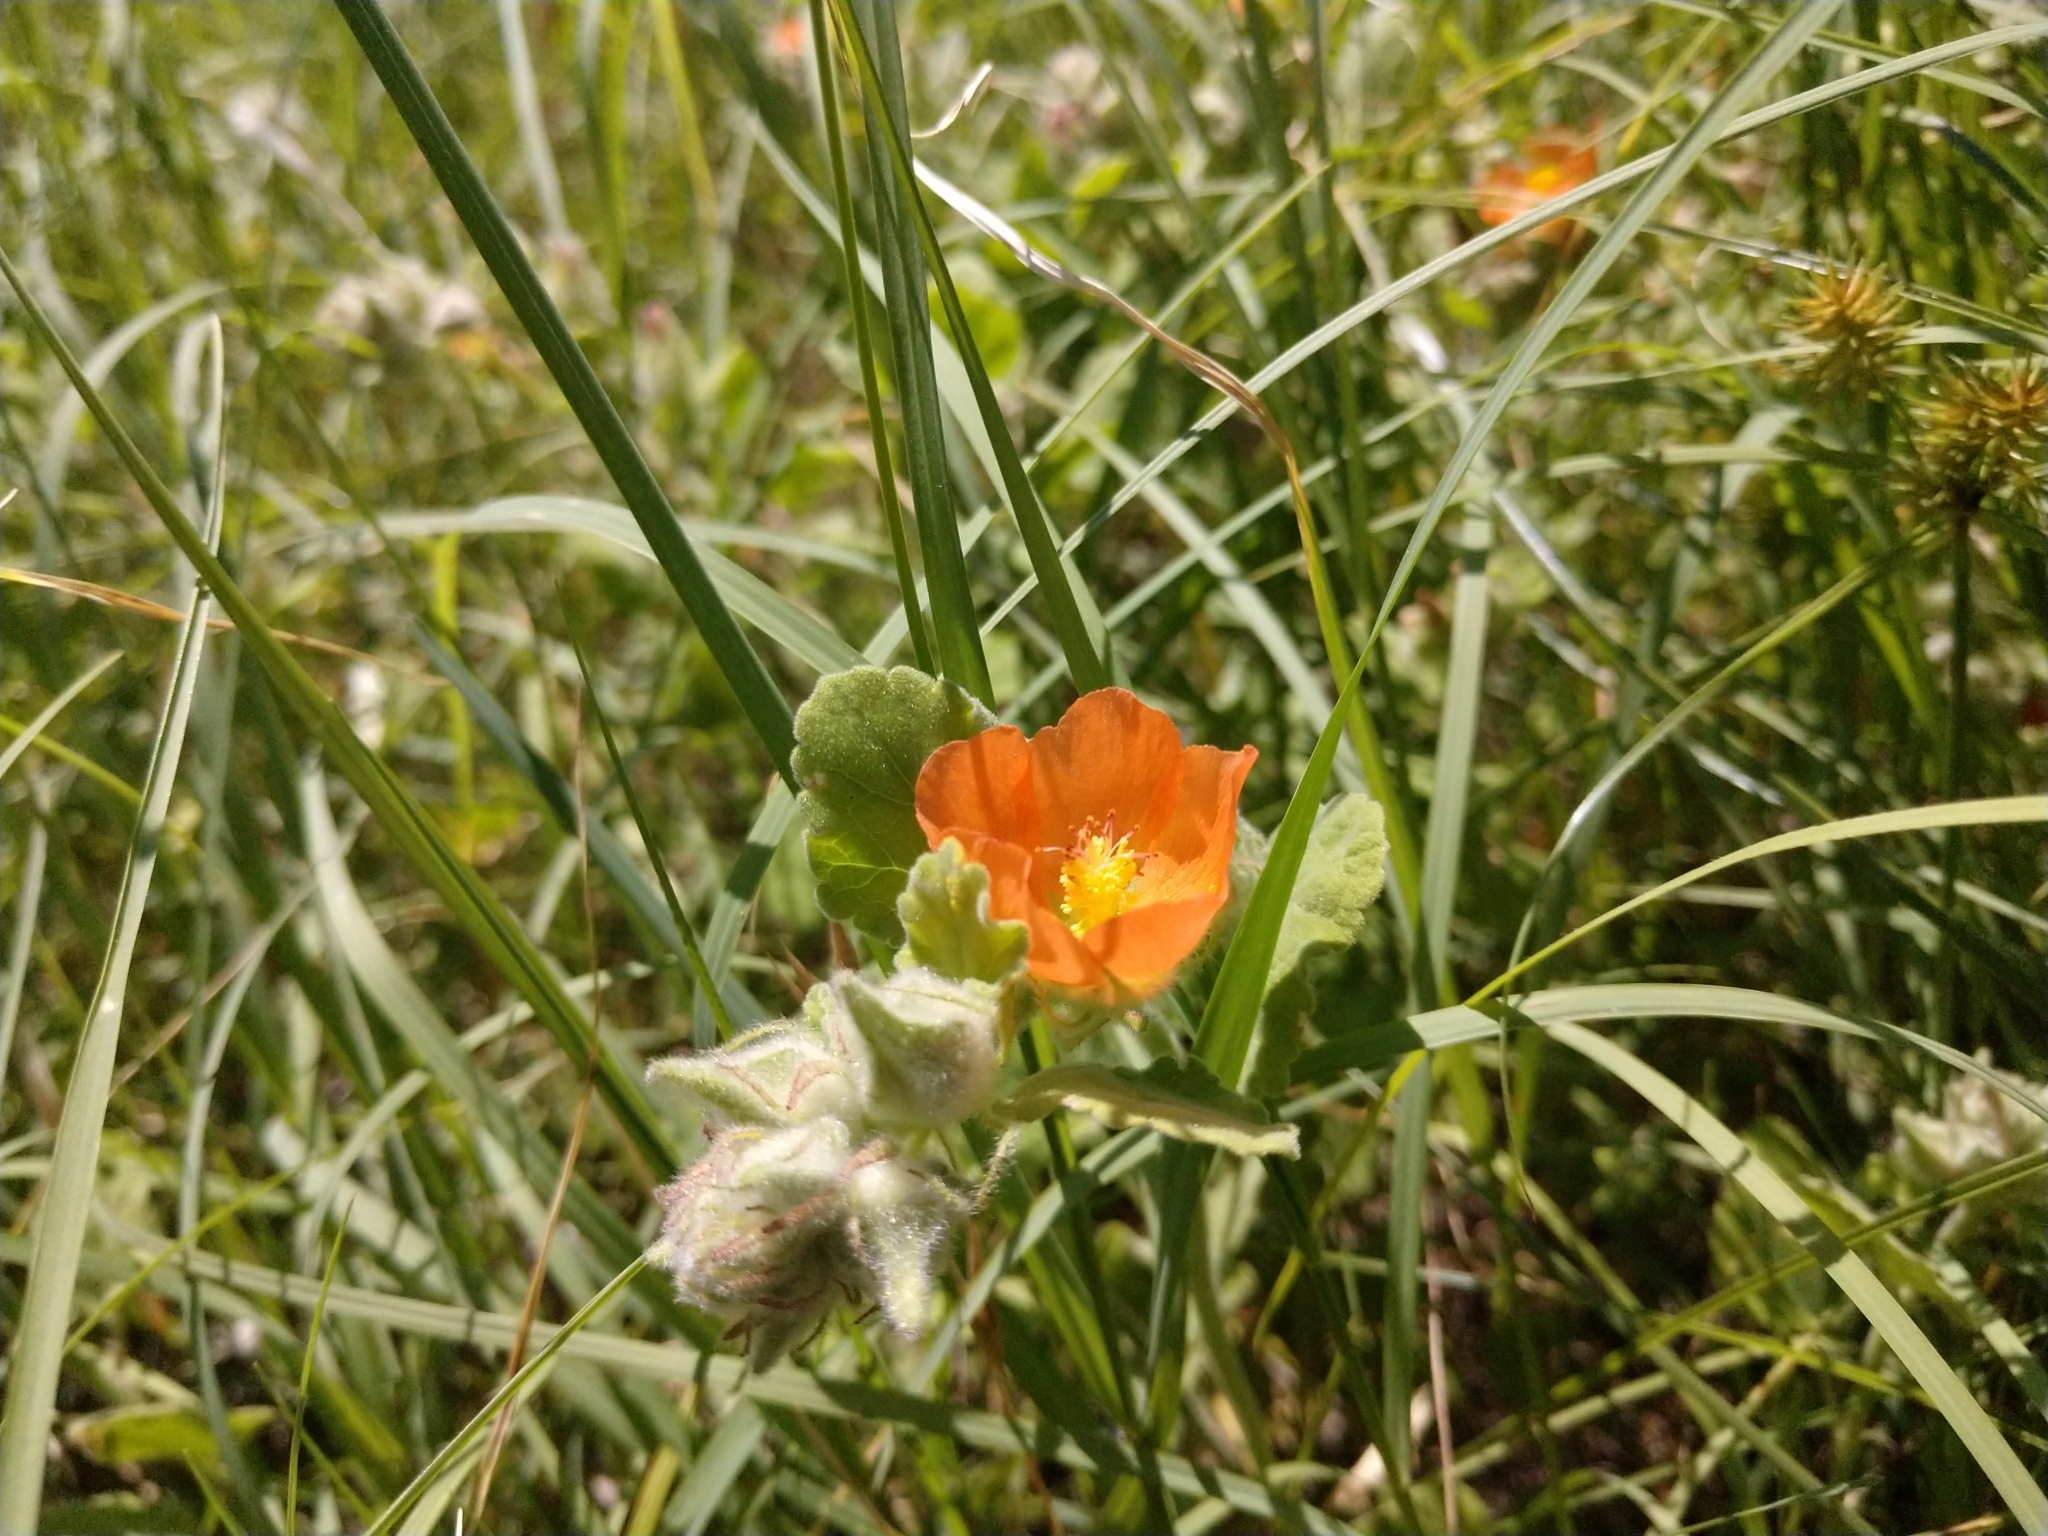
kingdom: Plantae
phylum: Tracheophyta
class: Magnoliopsida
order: Malvales
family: Malvaceae
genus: Sphaeralcea
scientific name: Sphaeralcea lindheimeri
